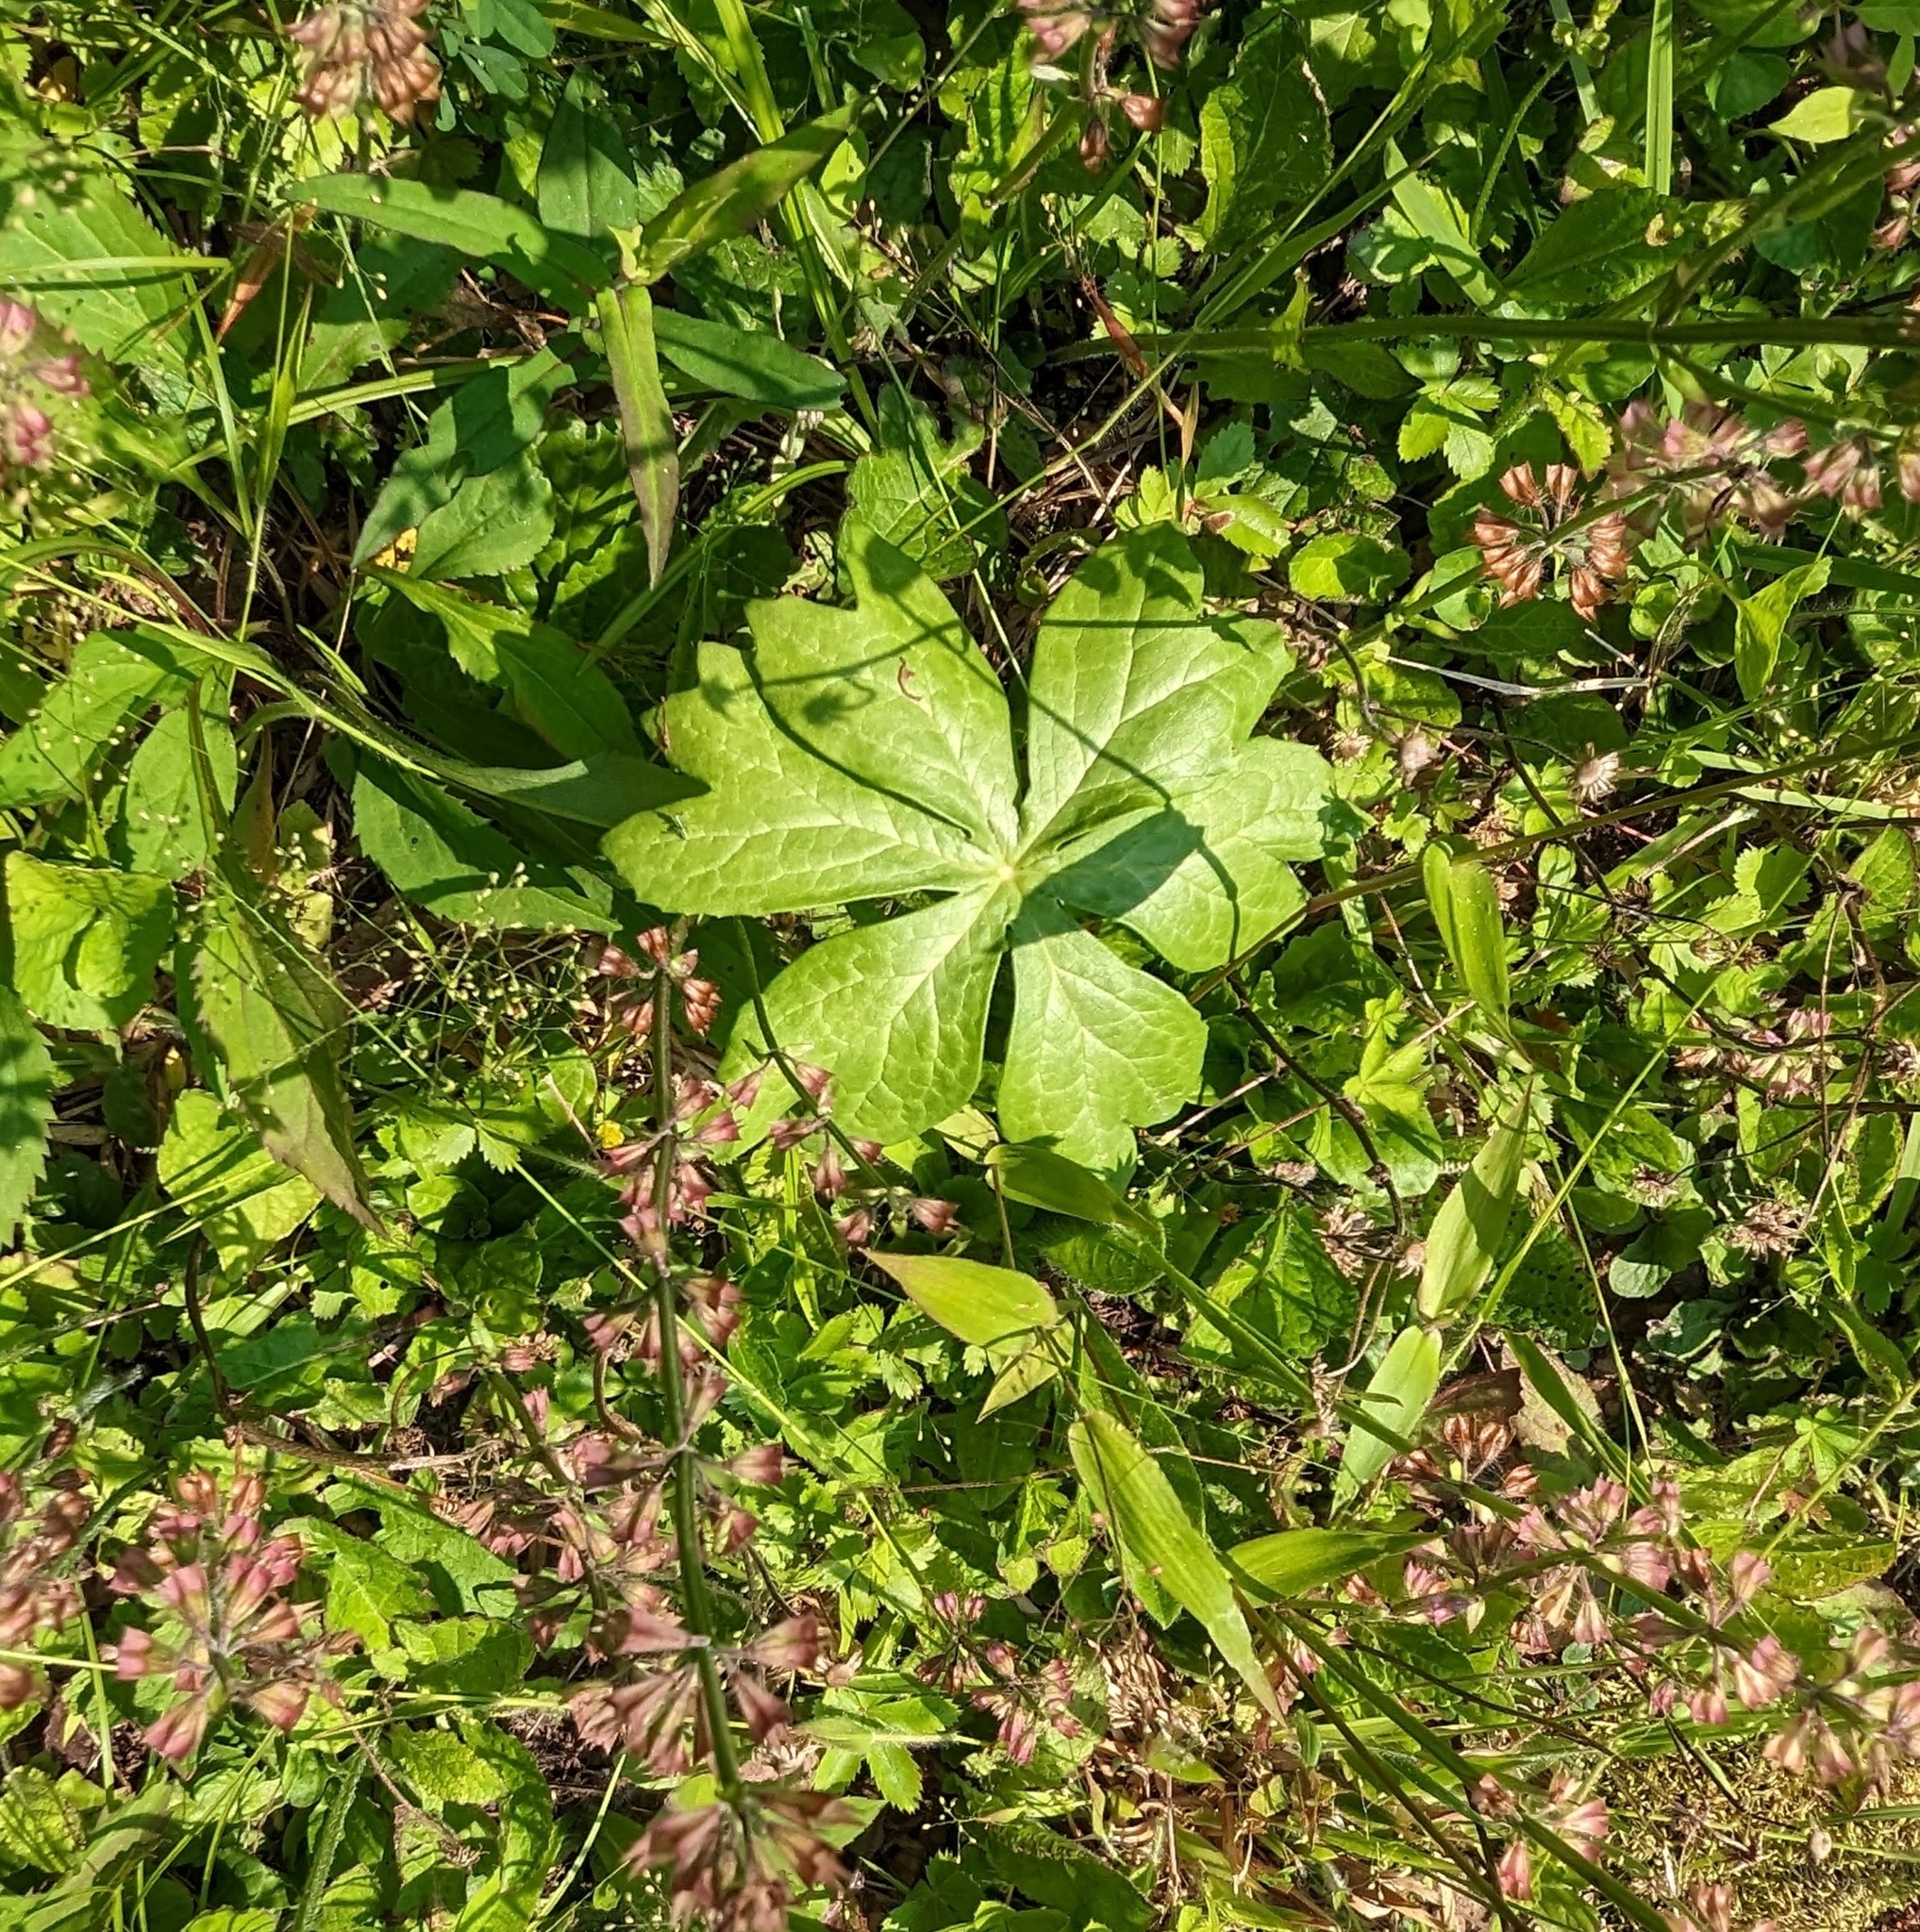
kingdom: Plantae
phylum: Tracheophyta
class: Magnoliopsida
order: Ranunculales
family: Berberidaceae
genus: Podophyllum
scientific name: Podophyllum peltatum
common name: Wild mandrake
